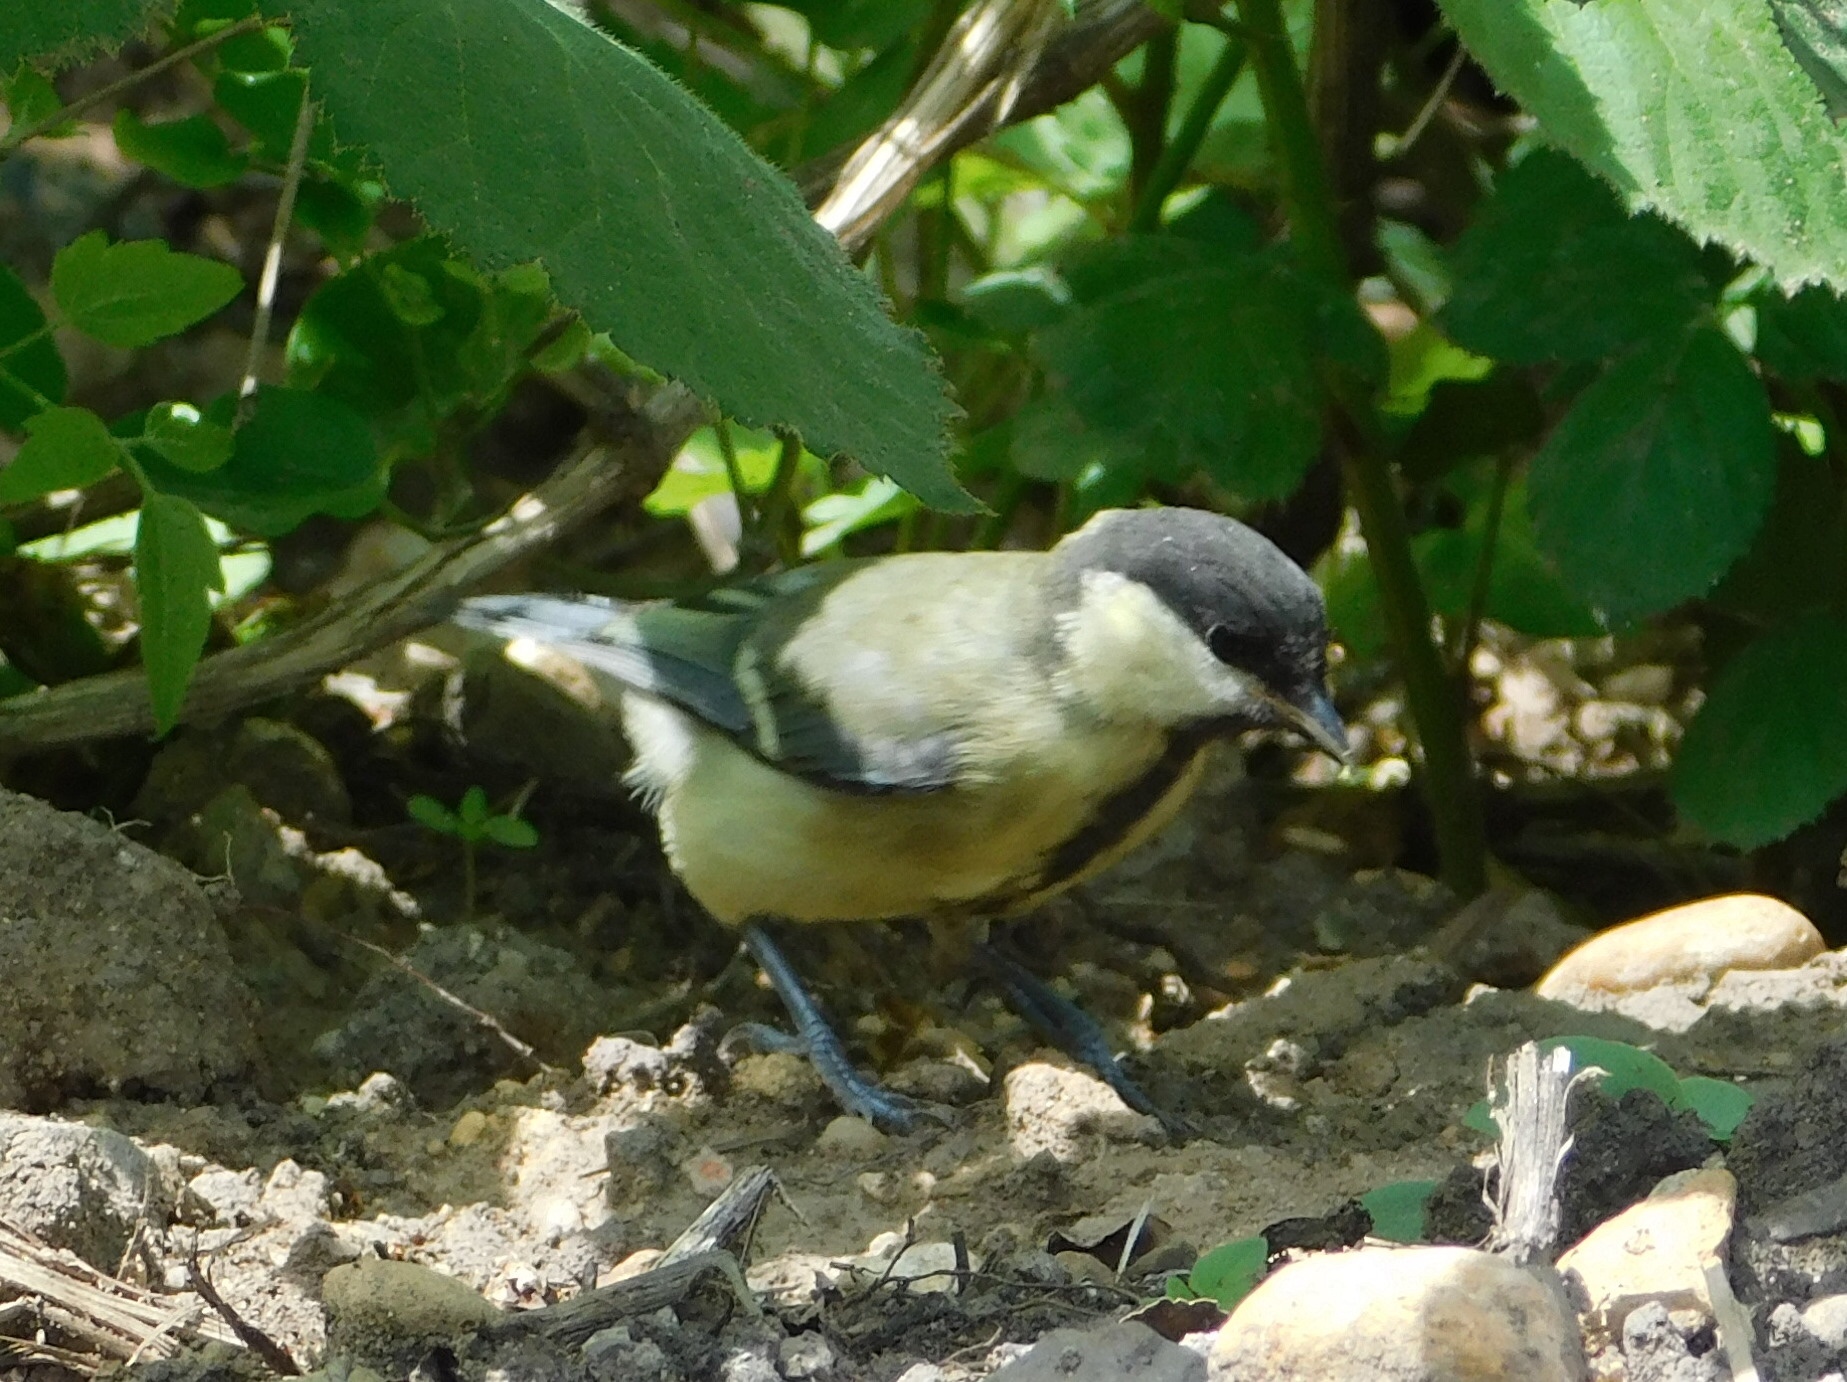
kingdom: Animalia
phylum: Chordata
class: Aves
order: Passeriformes
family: Paridae
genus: Parus
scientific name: Parus major
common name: Great tit
